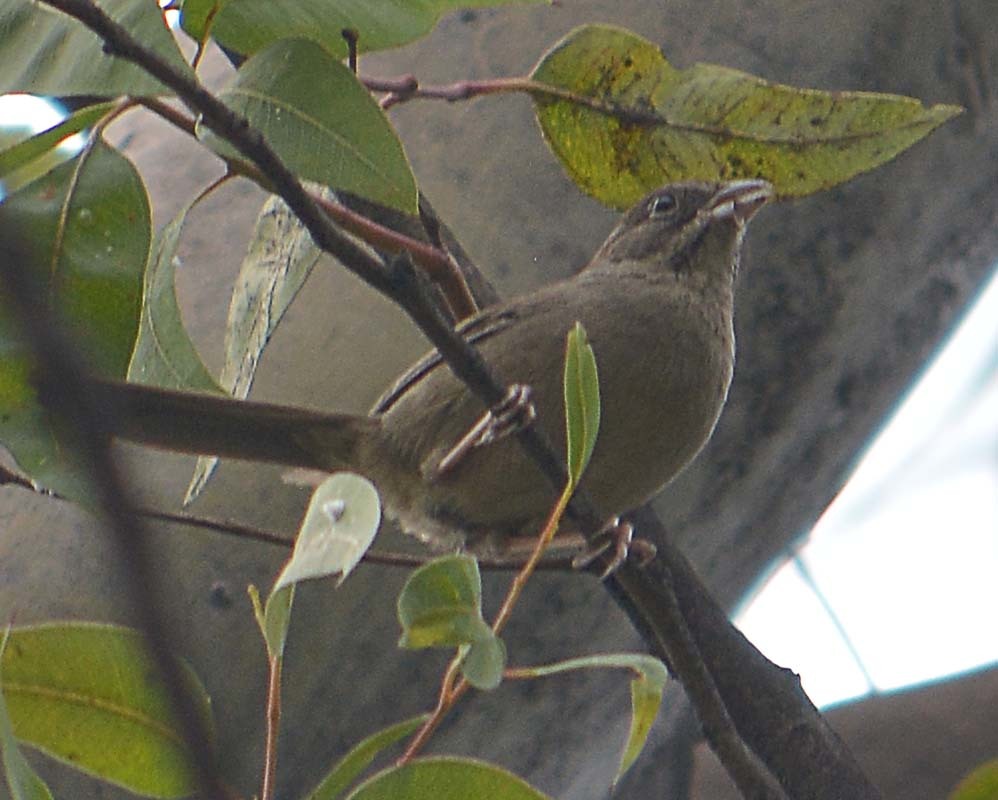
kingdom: Animalia
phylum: Chordata
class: Aves
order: Passeriformes
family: Passerellidae
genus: Aimophila
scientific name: Aimophila ruficeps
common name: Rufous-crowned sparrow
